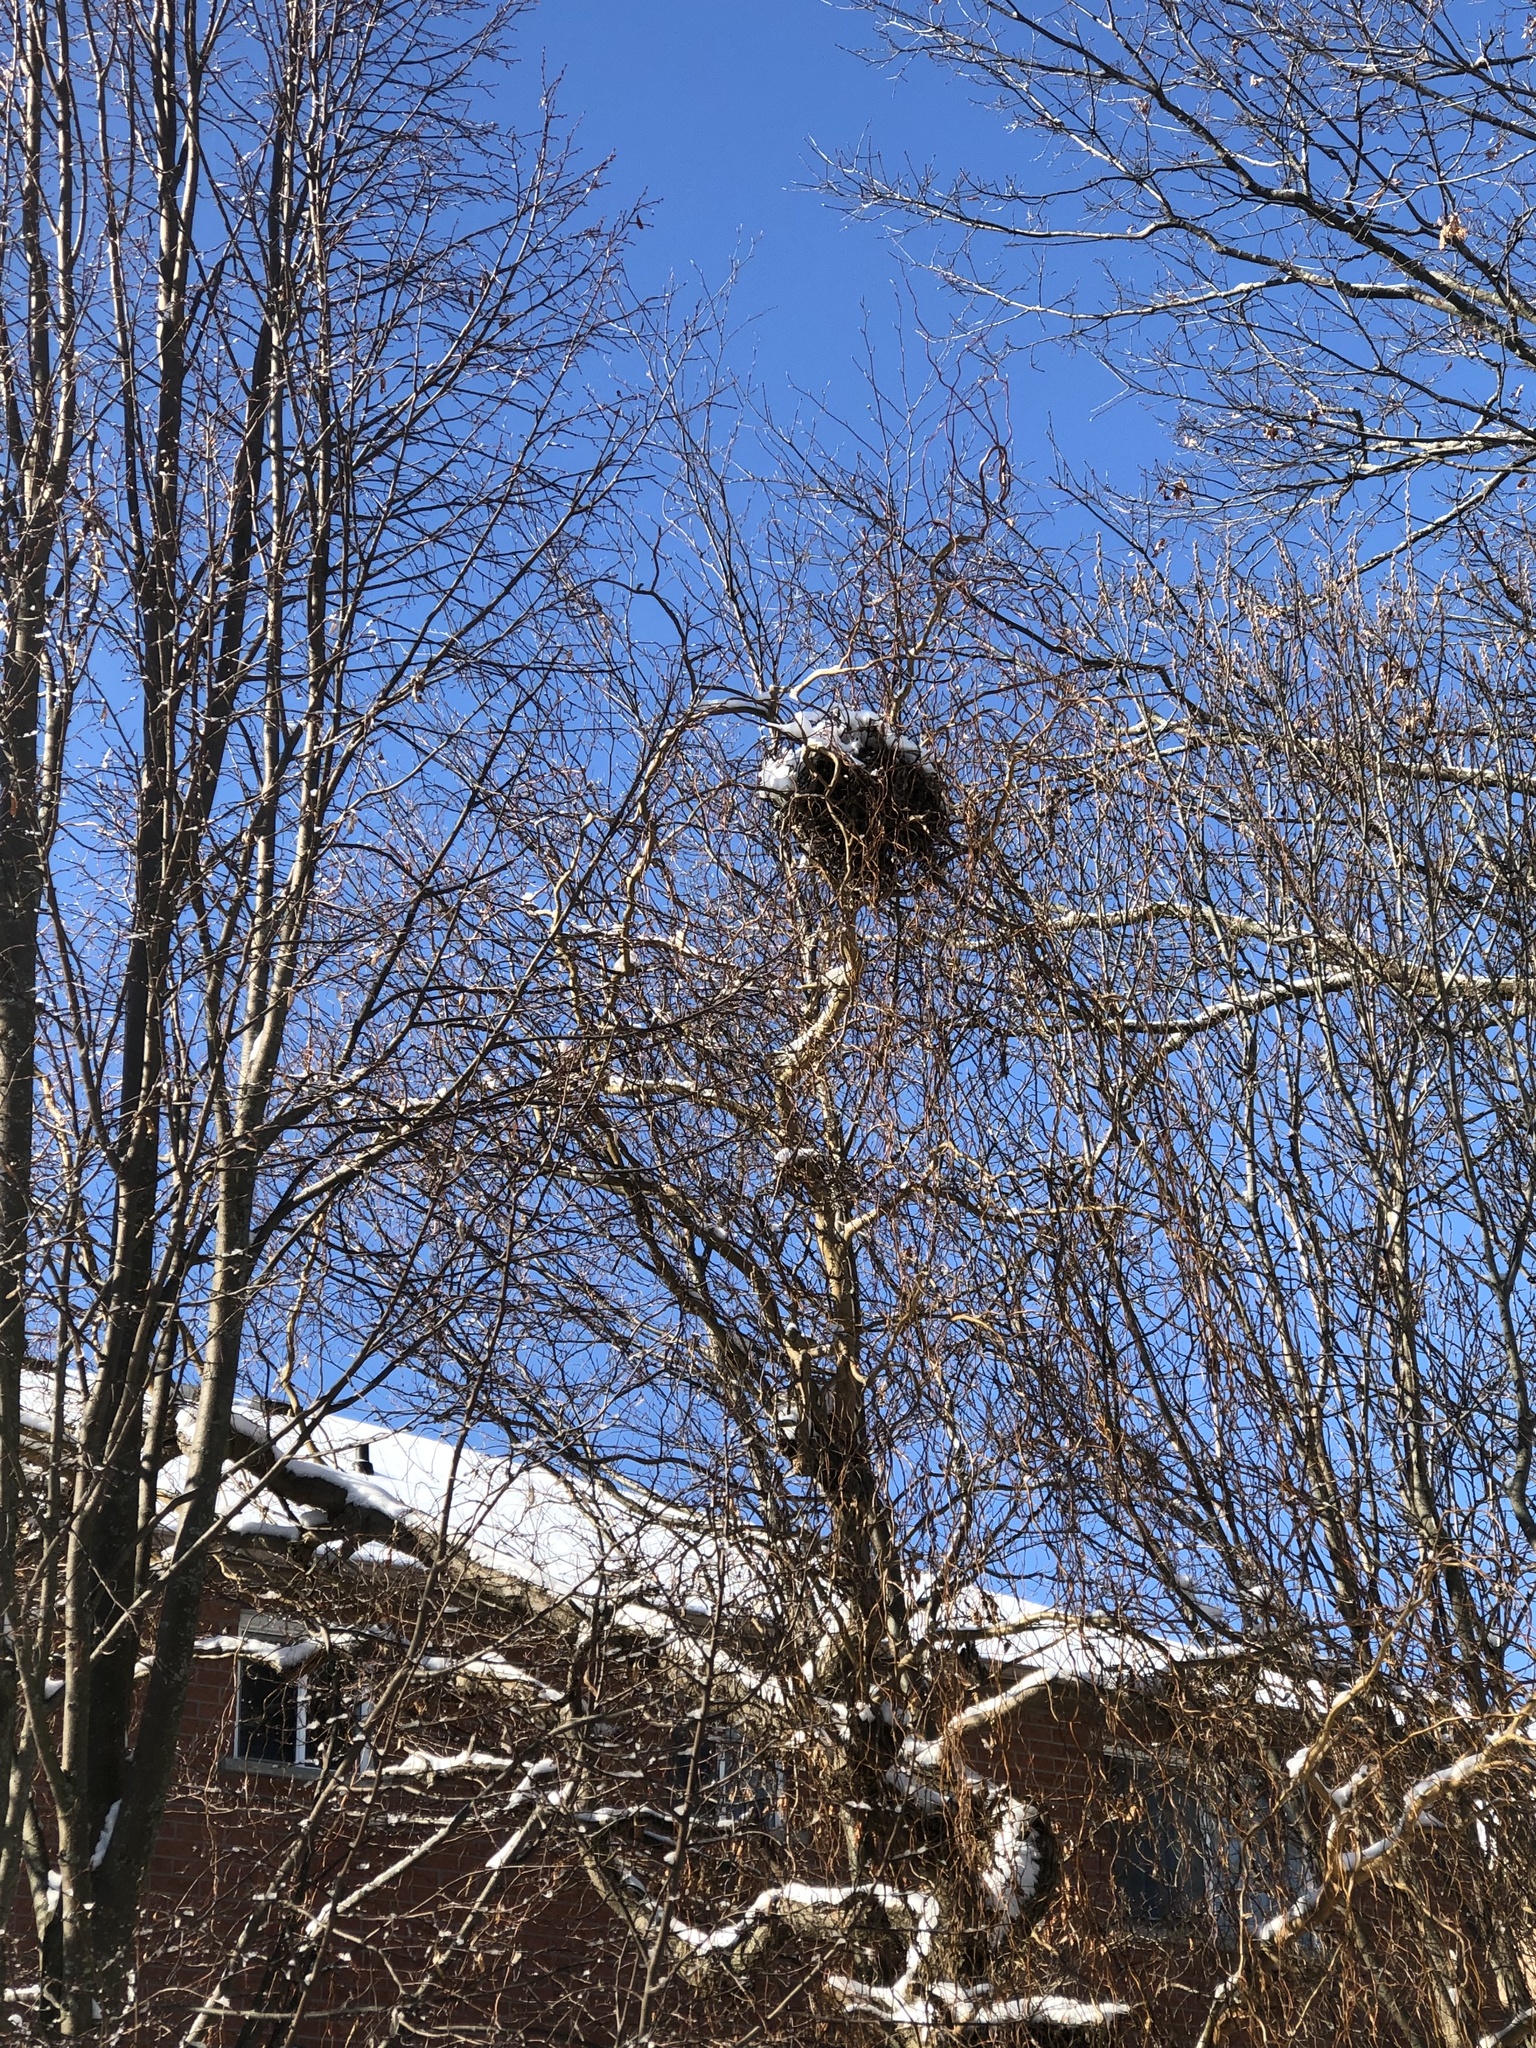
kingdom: Animalia
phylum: Chordata
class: Mammalia
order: Rodentia
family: Sciuridae
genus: Sciurus
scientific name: Sciurus carolinensis
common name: Eastern gray squirrel
